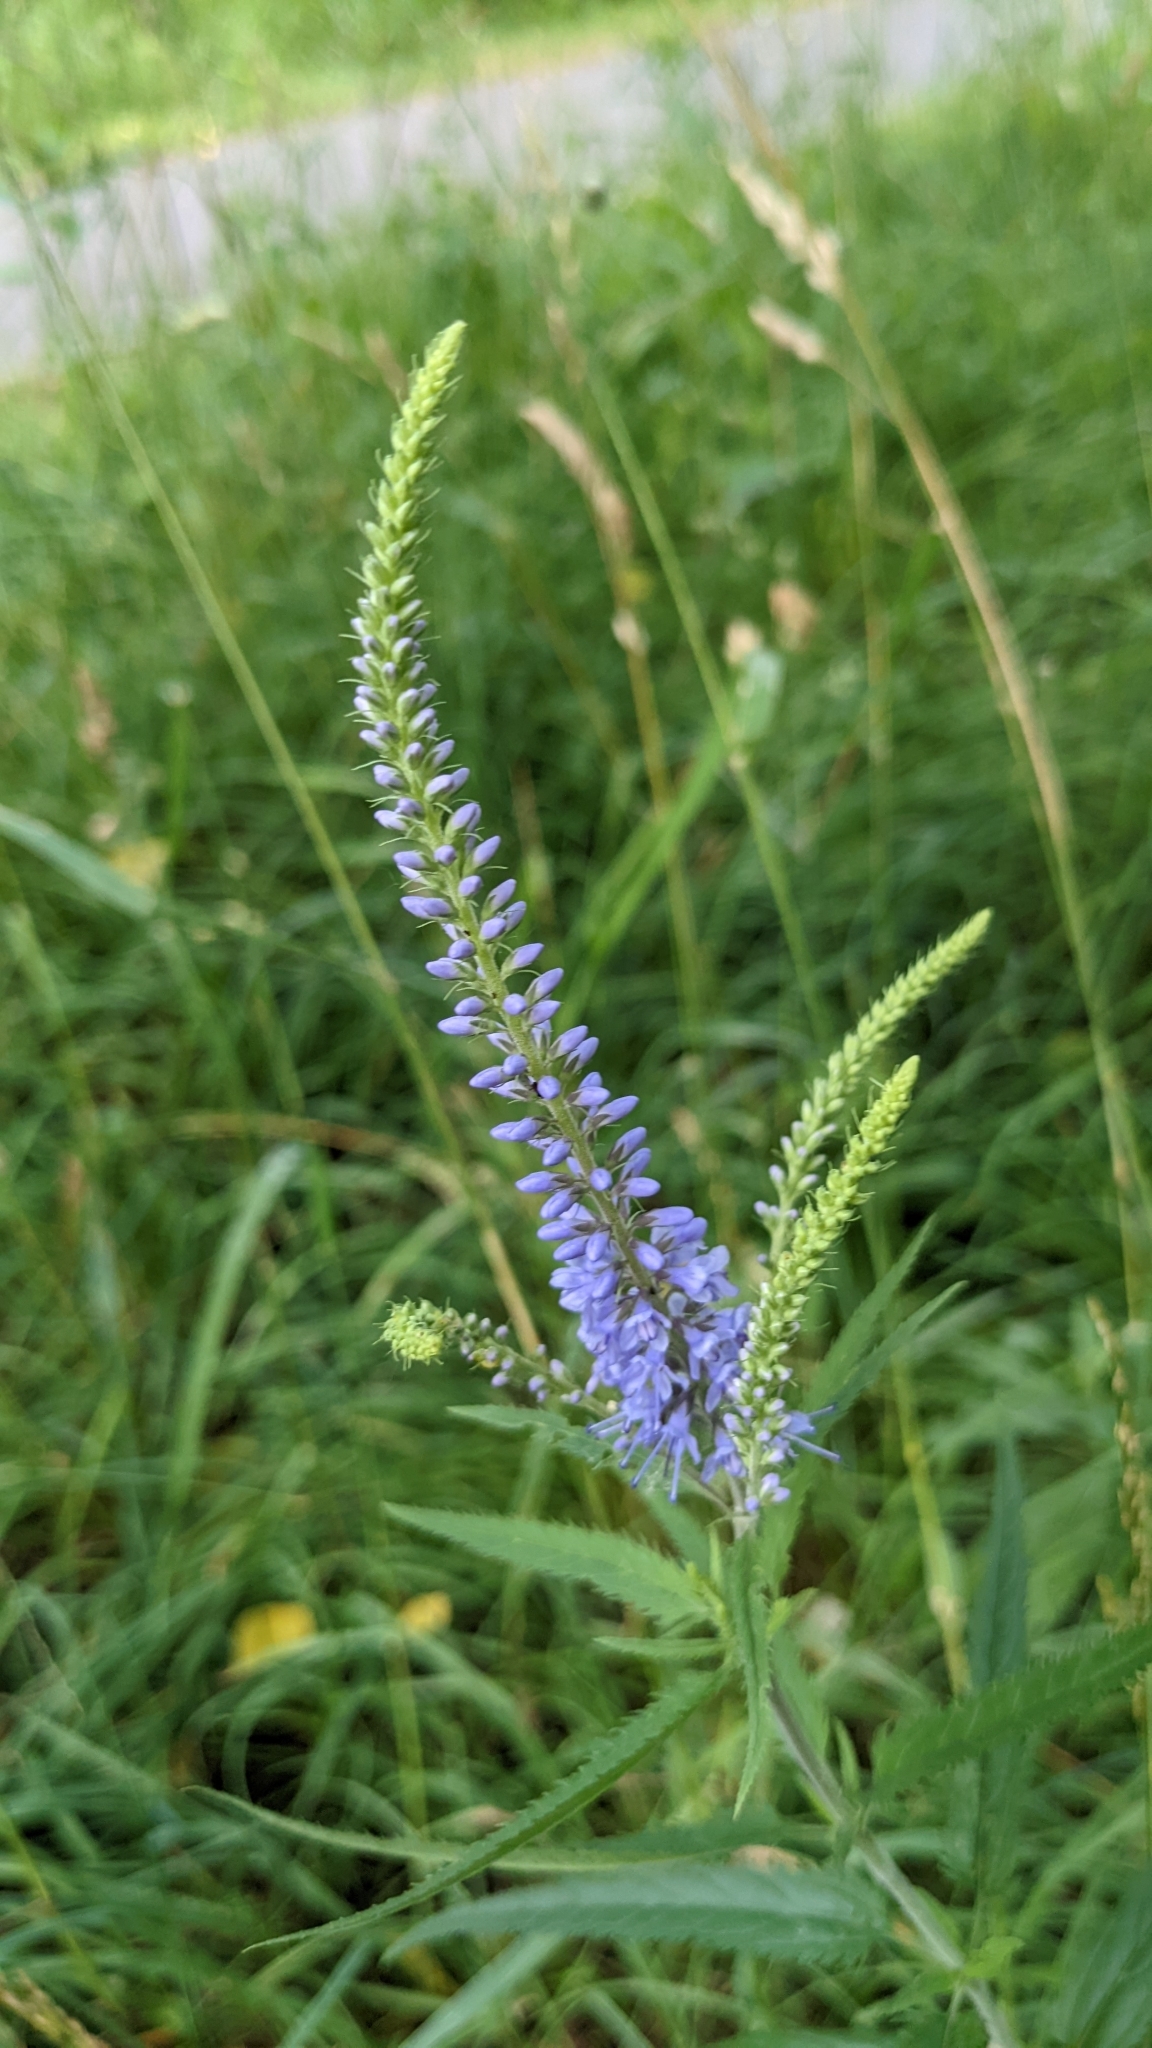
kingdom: Plantae
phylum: Tracheophyta
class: Magnoliopsida
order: Lamiales
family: Plantaginaceae
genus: Veronica
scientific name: Veronica longifolia
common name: Garden speedwell
